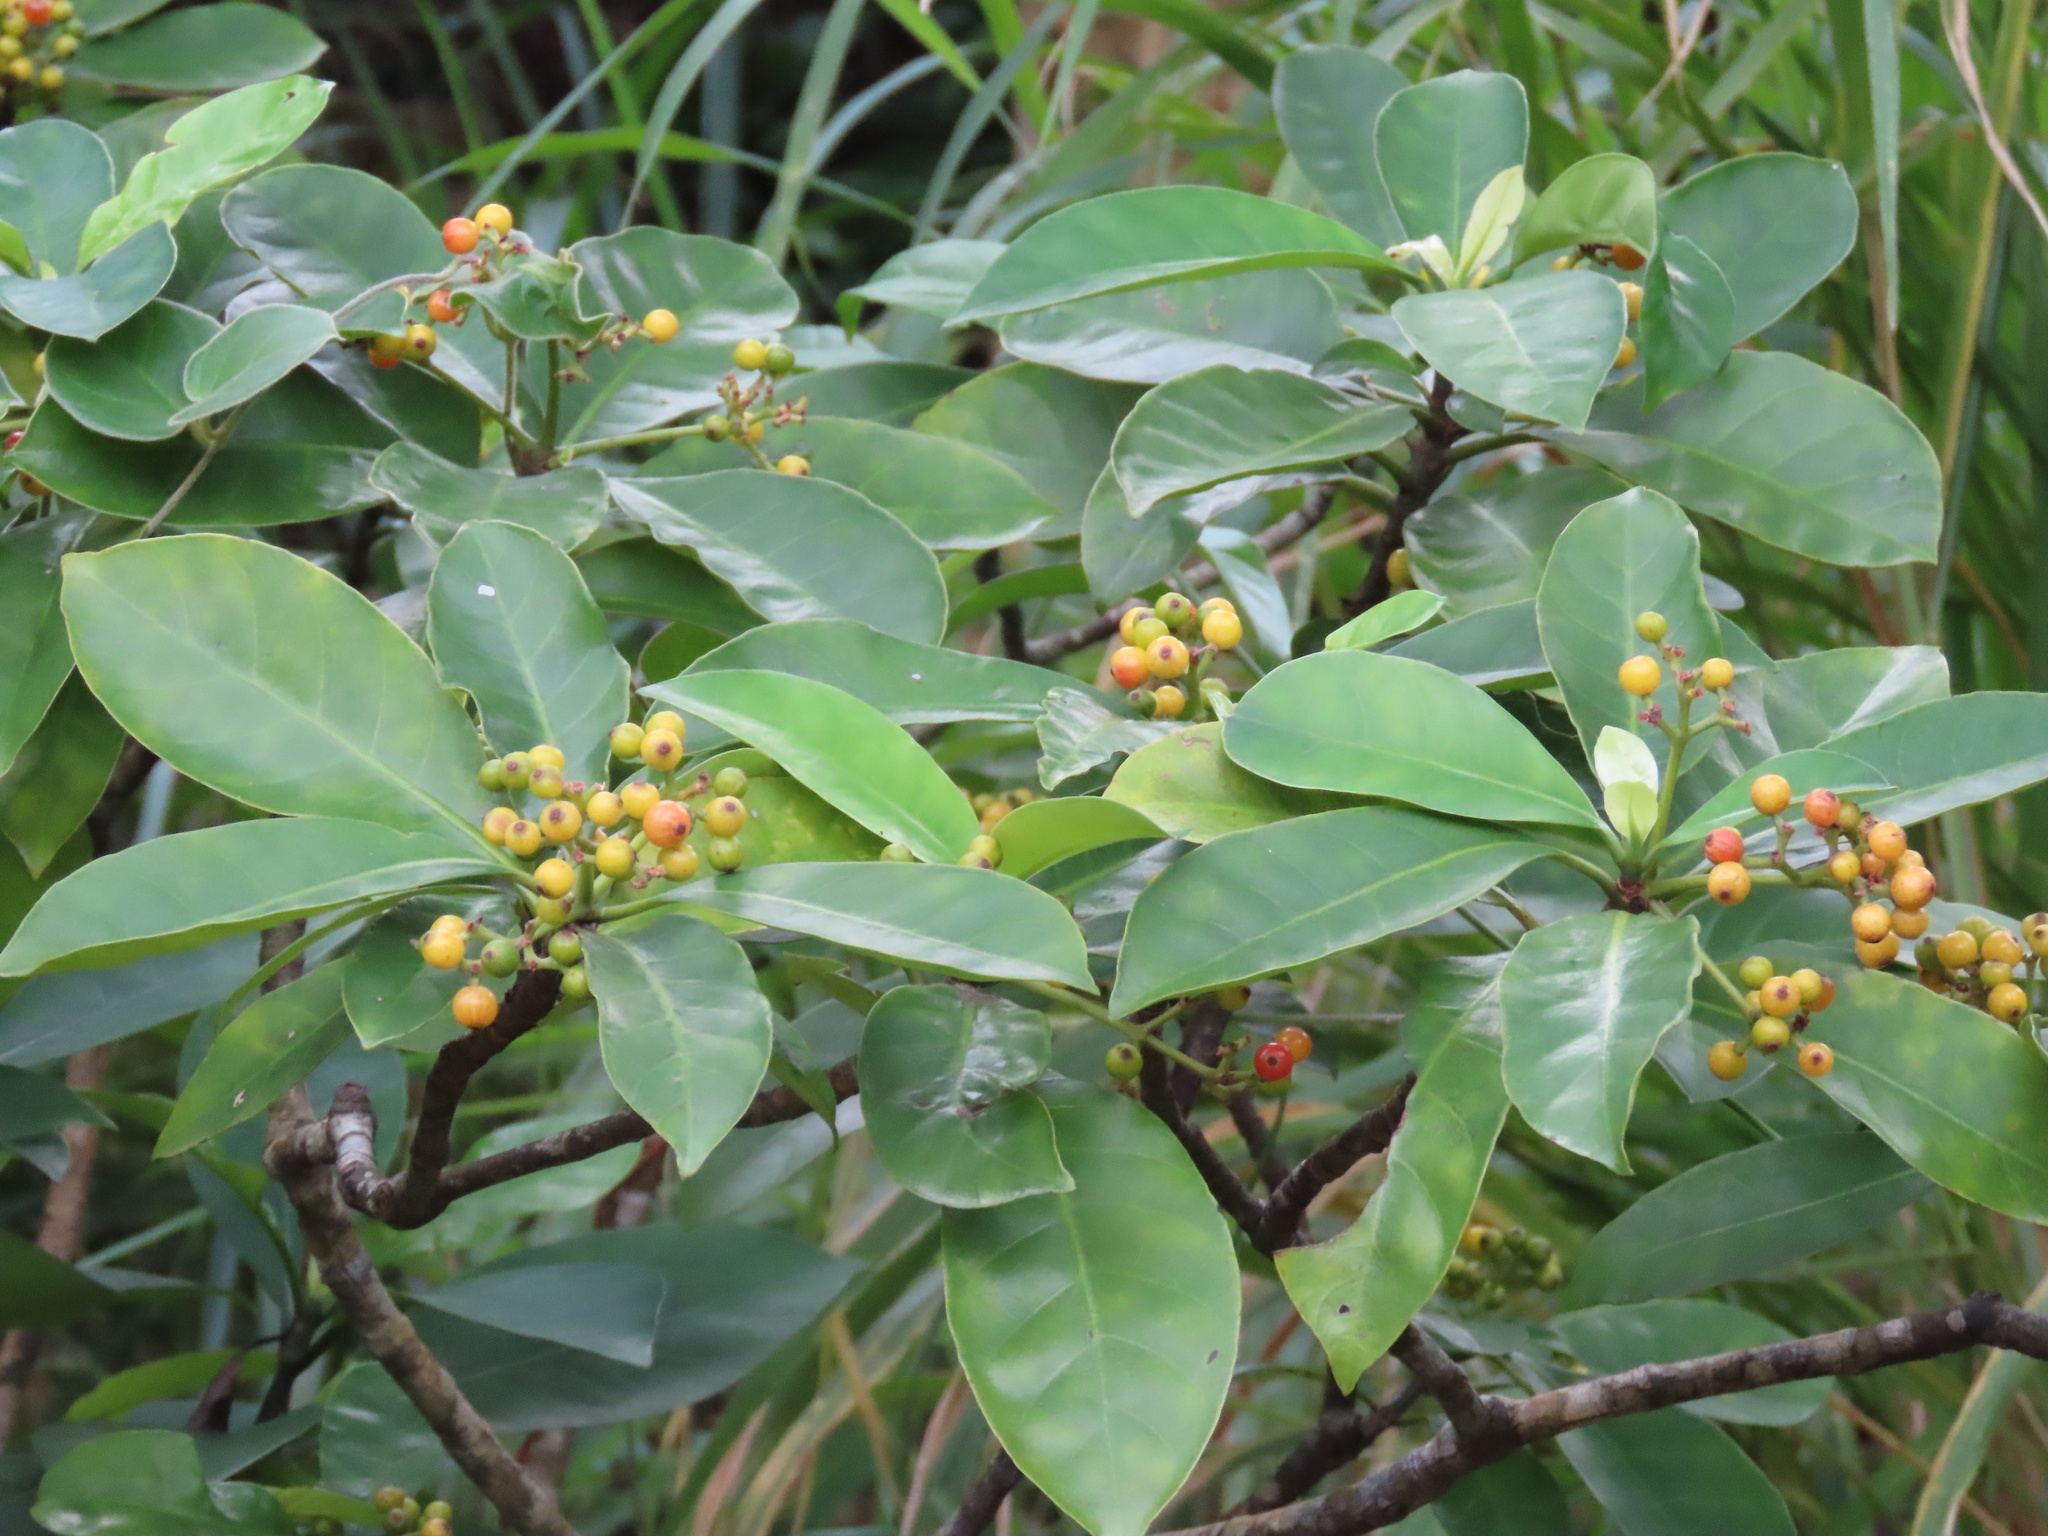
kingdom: Plantae
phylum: Tracheophyta
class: Magnoliopsida
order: Gentianales
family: Rubiaceae
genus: Psychotria
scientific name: Psychotria asiatica
